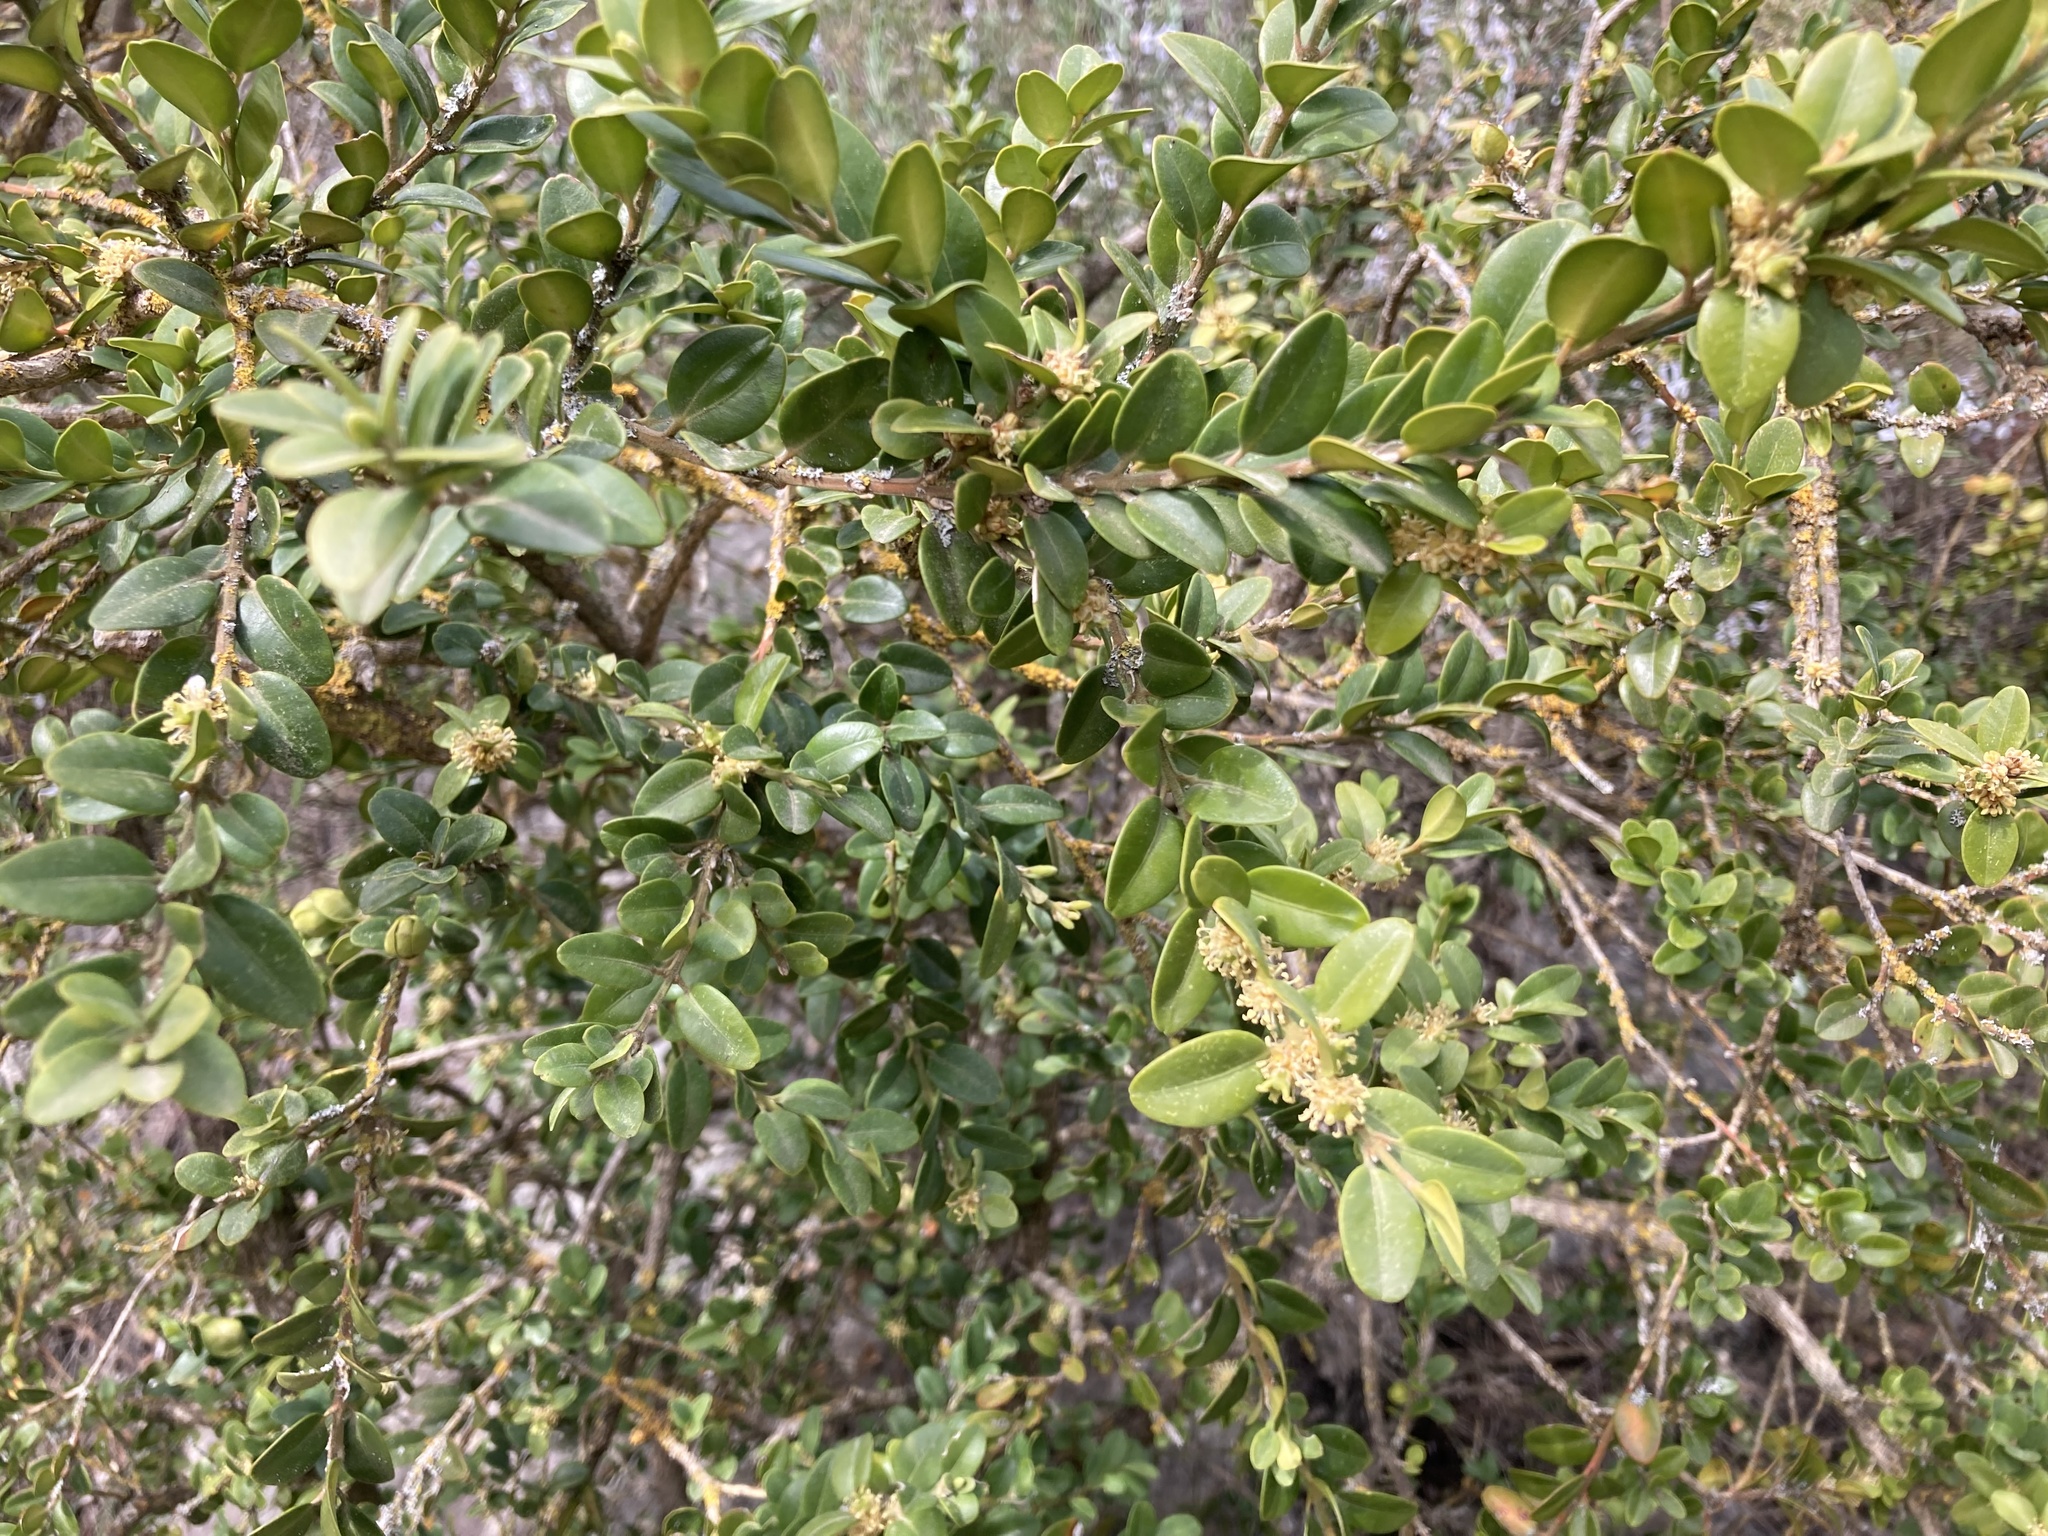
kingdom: Plantae
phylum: Tracheophyta
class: Magnoliopsida
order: Buxales
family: Buxaceae
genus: Buxus
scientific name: Buxus sempervirens
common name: Box
